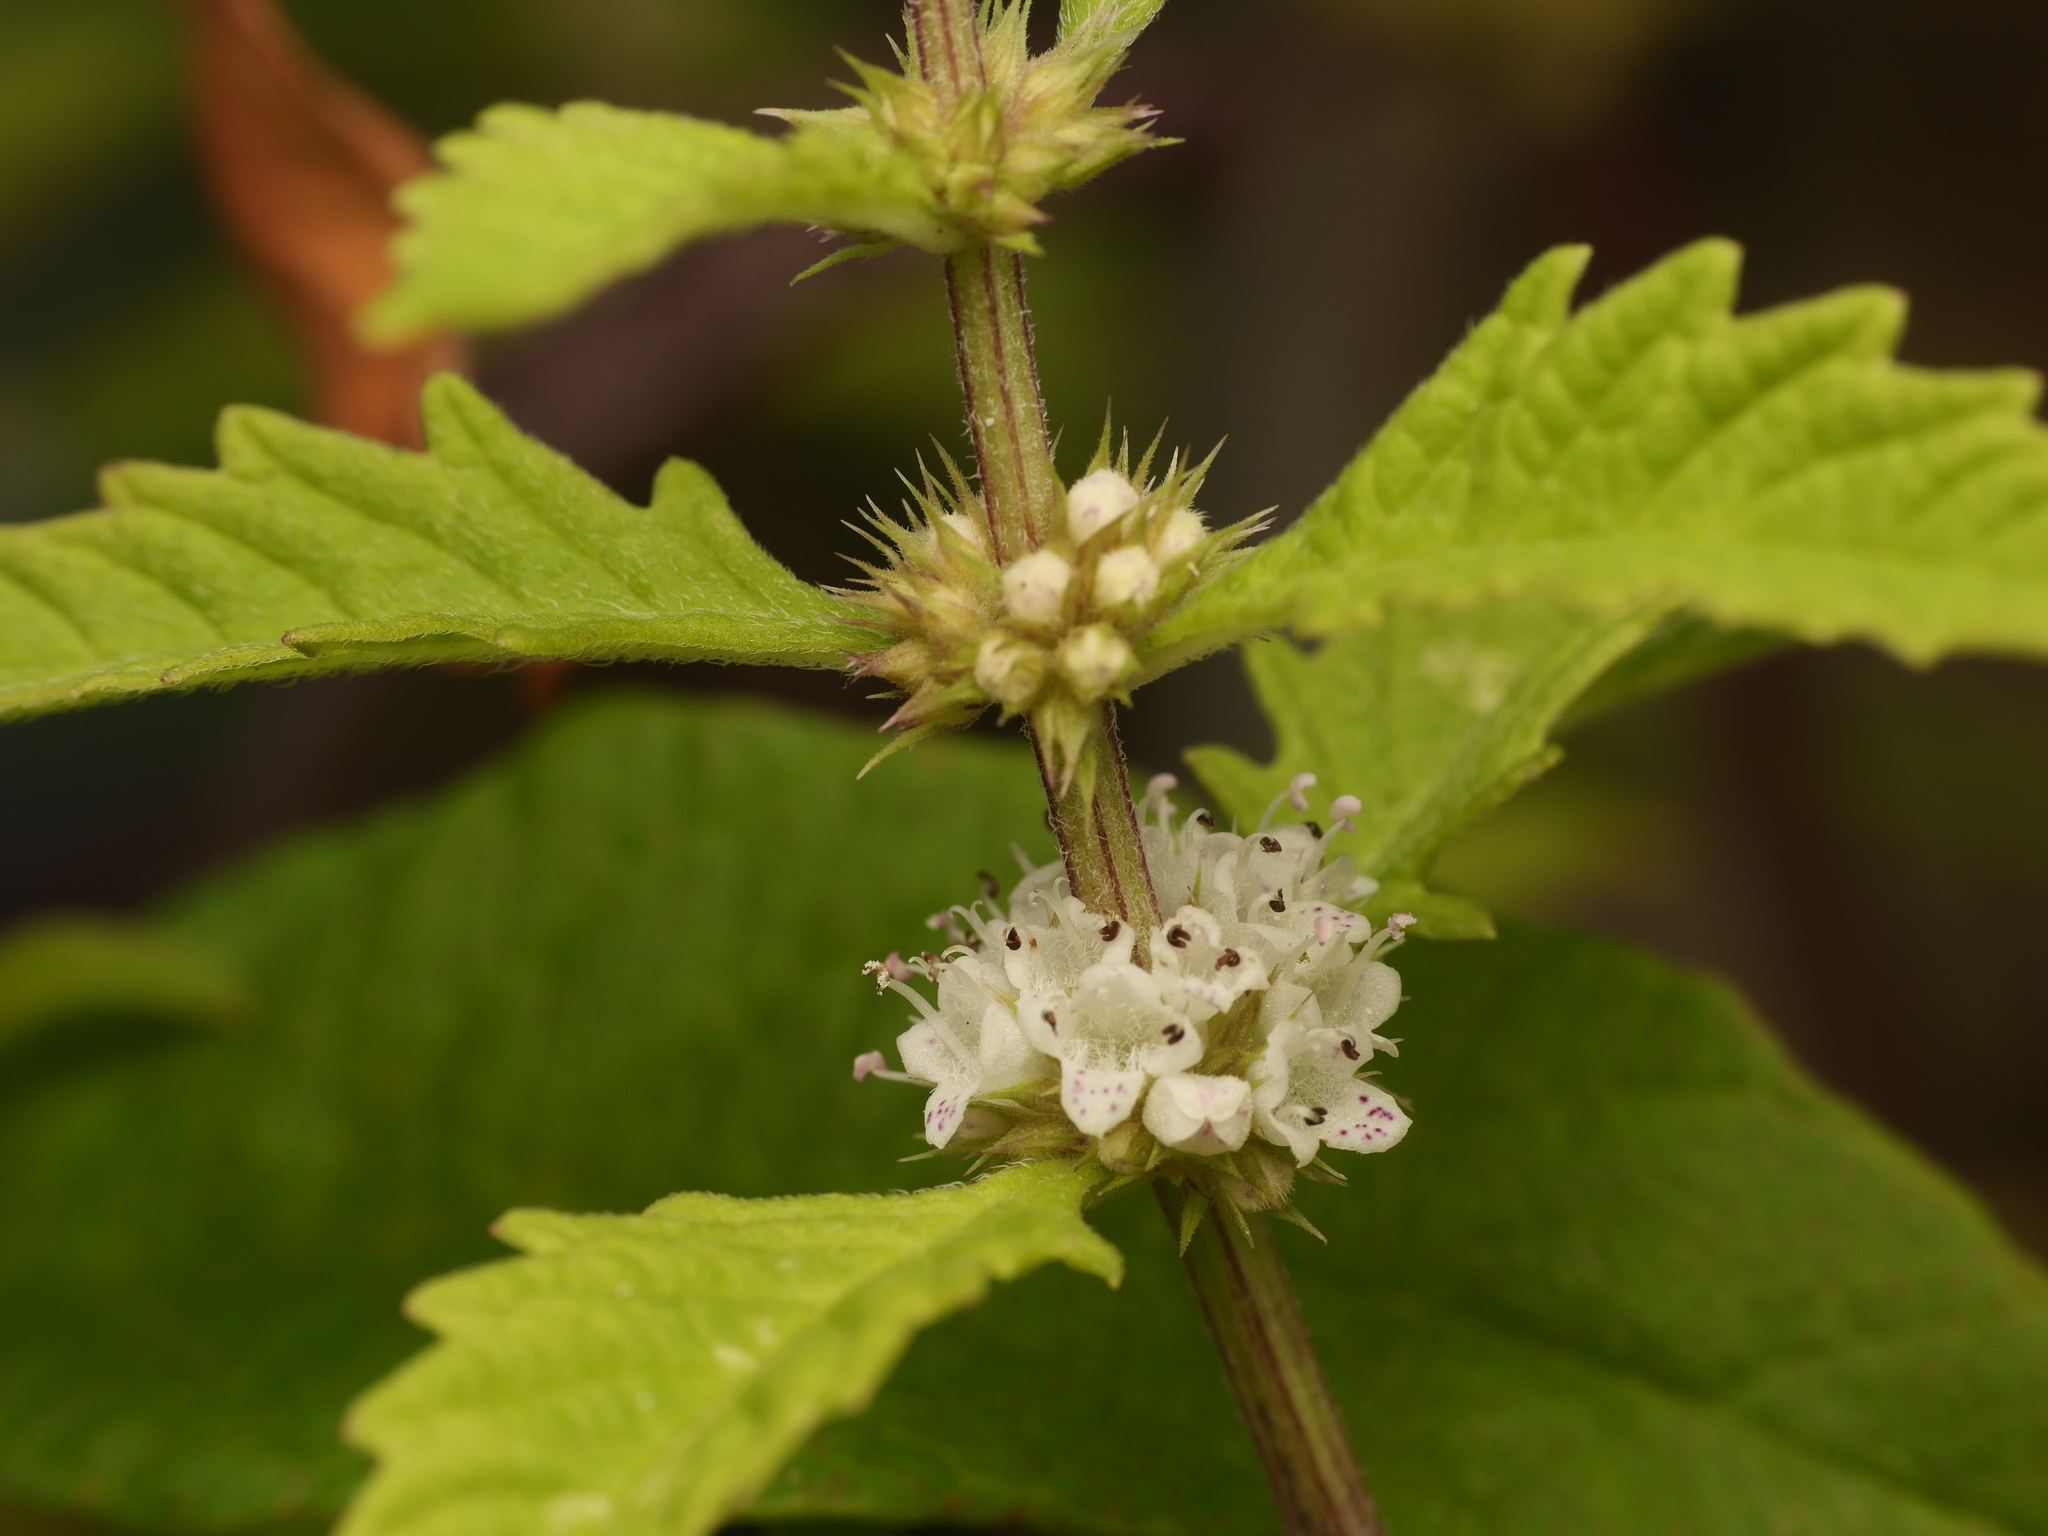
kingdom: Plantae
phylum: Tracheophyta
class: Magnoliopsida
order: Lamiales
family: Lamiaceae
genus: Lycopus
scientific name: Lycopus europaeus
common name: European bugleweed
